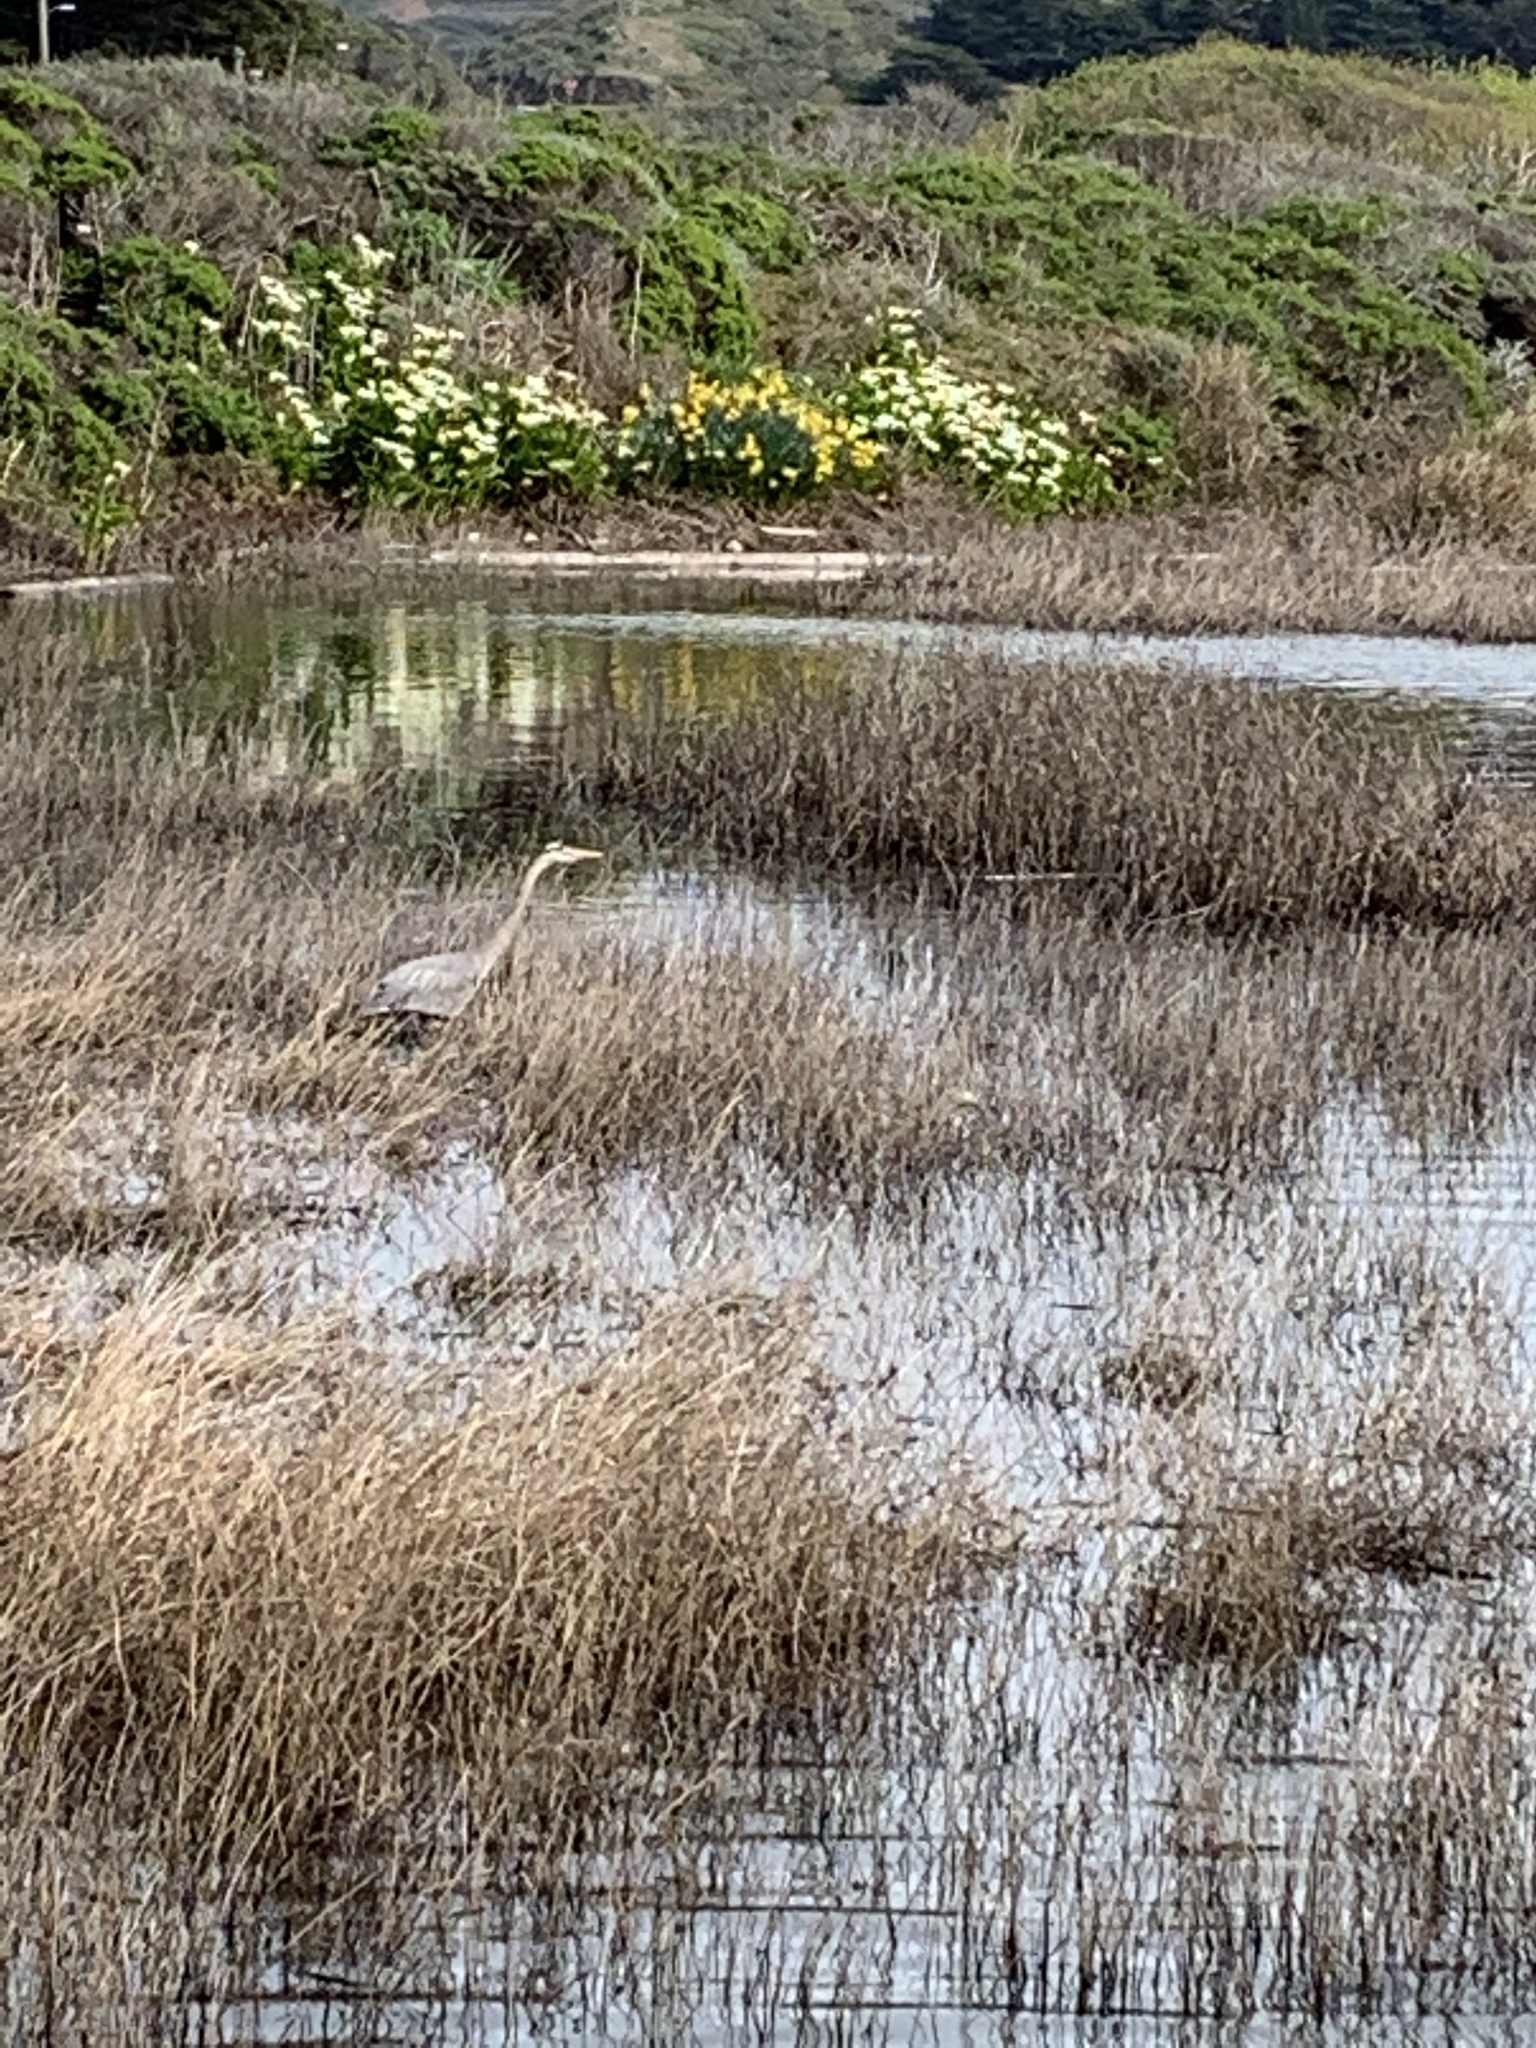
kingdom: Animalia
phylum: Chordata
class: Aves
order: Pelecaniformes
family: Ardeidae
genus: Ardea
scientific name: Ardea herodias
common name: Great blue heron
